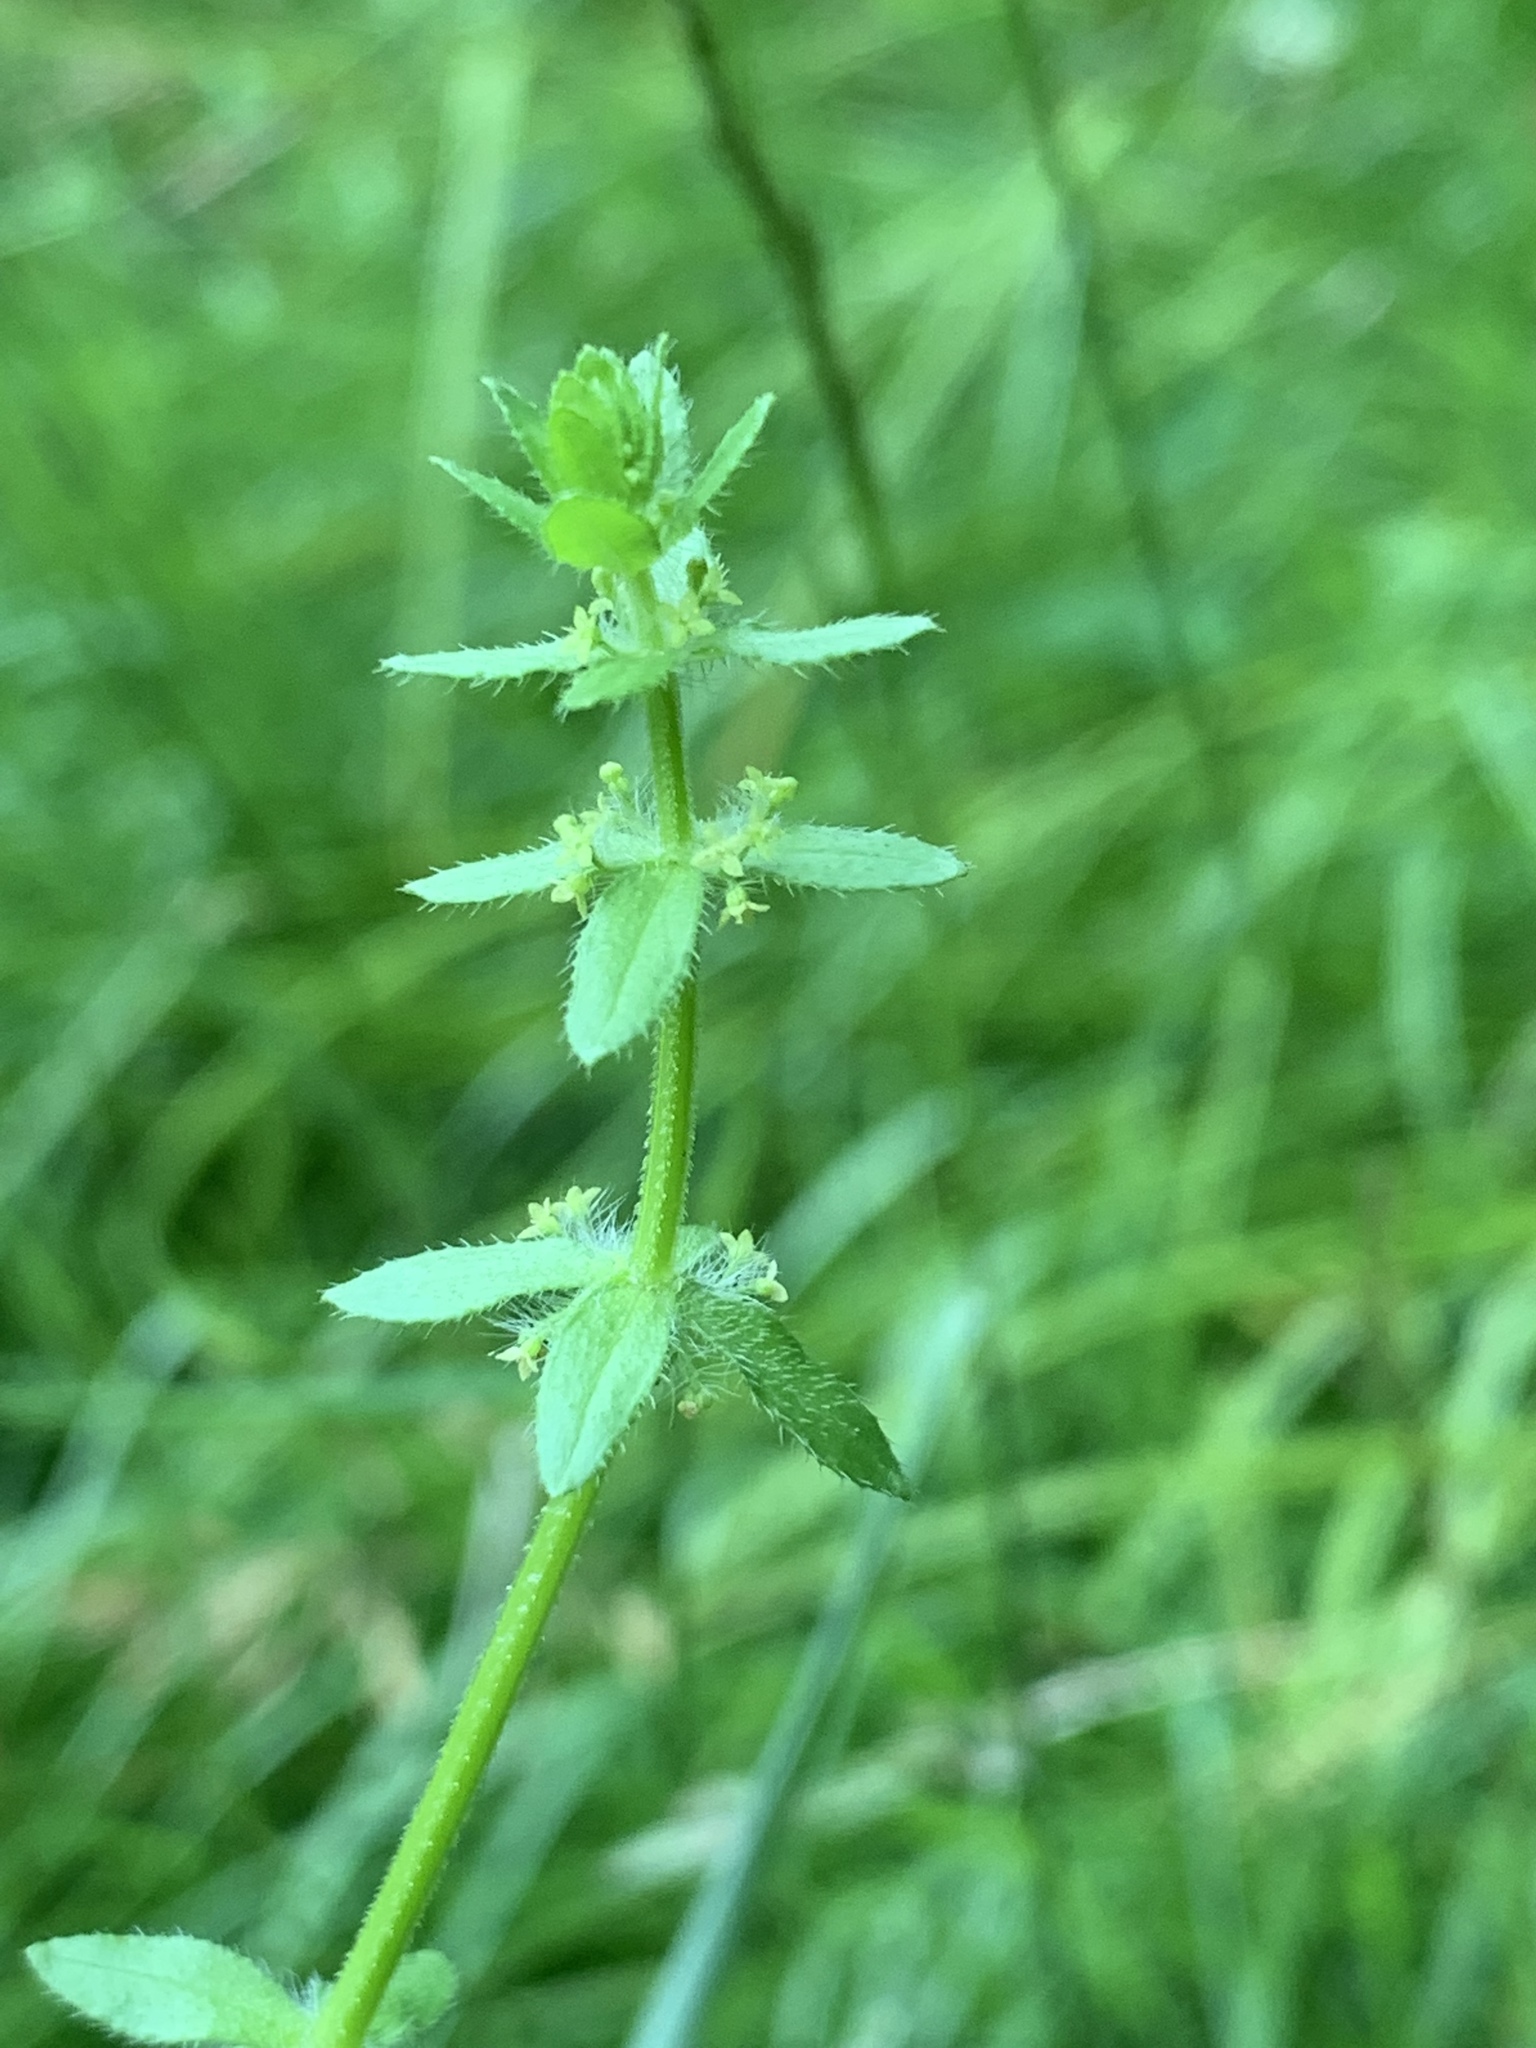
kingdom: Plantae
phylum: Tracheophyta
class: Magnoliopsida
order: Gentianales
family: Rubiaceae
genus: Cruciata
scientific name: Cruciata pedemontana
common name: Piedmont bedstraw
